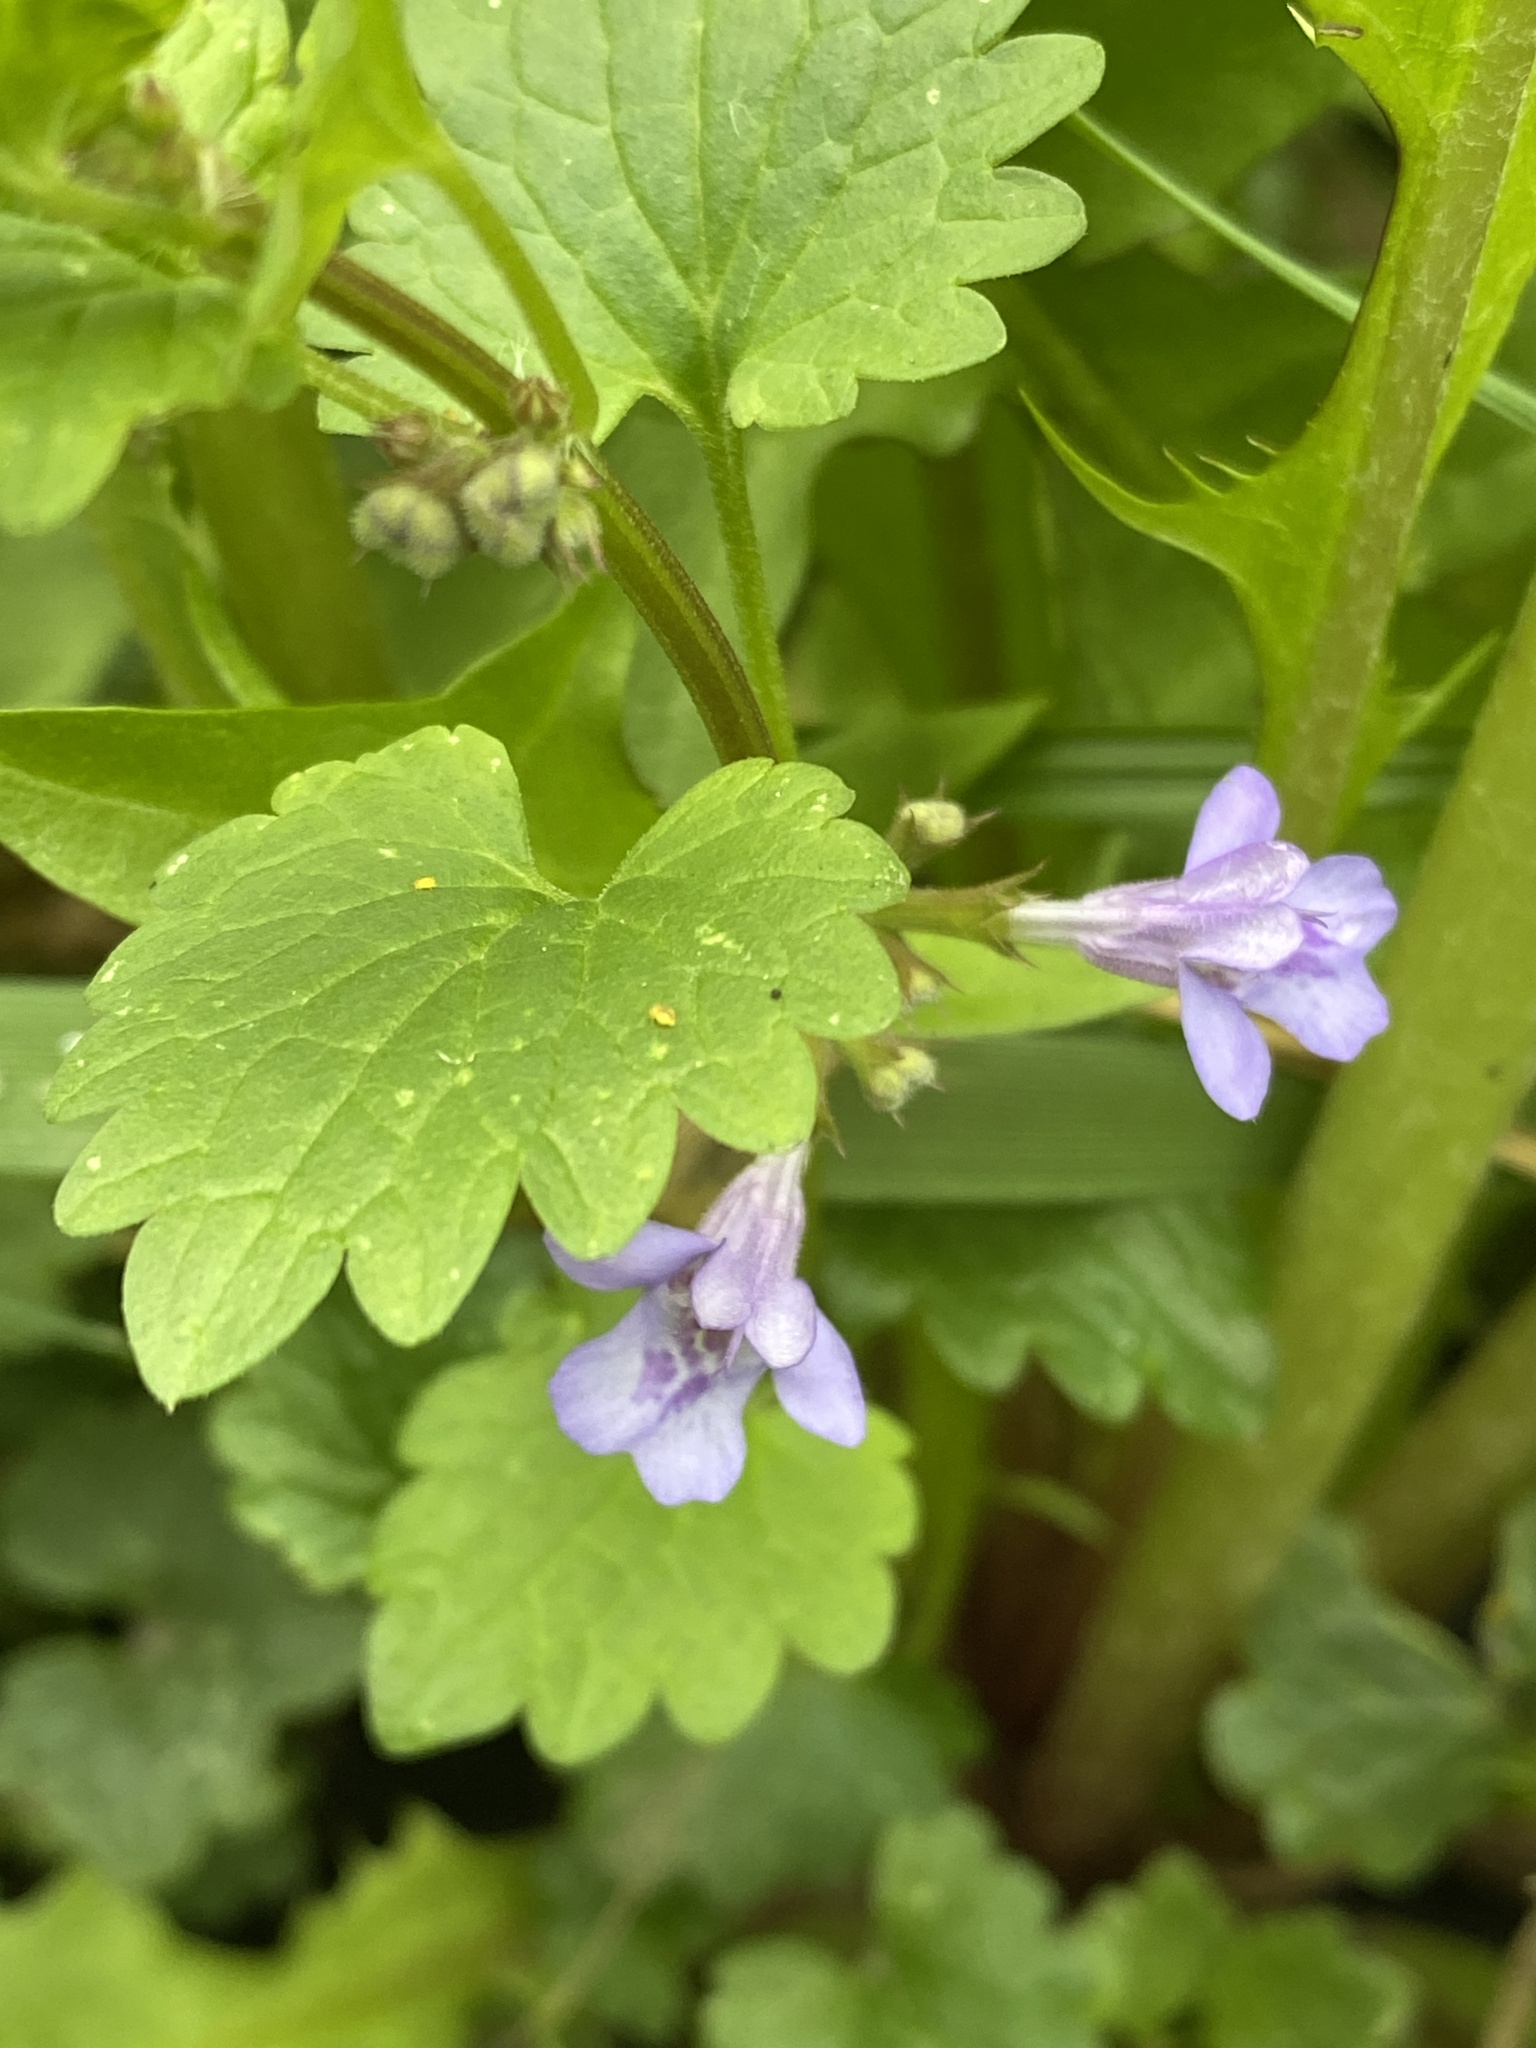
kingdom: Plantae
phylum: Tracheophyta
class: Magnoliopsida
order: Lamiales
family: Lamiaceae
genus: Glechoma
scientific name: Glechoma hederacea
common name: Ground ivy
